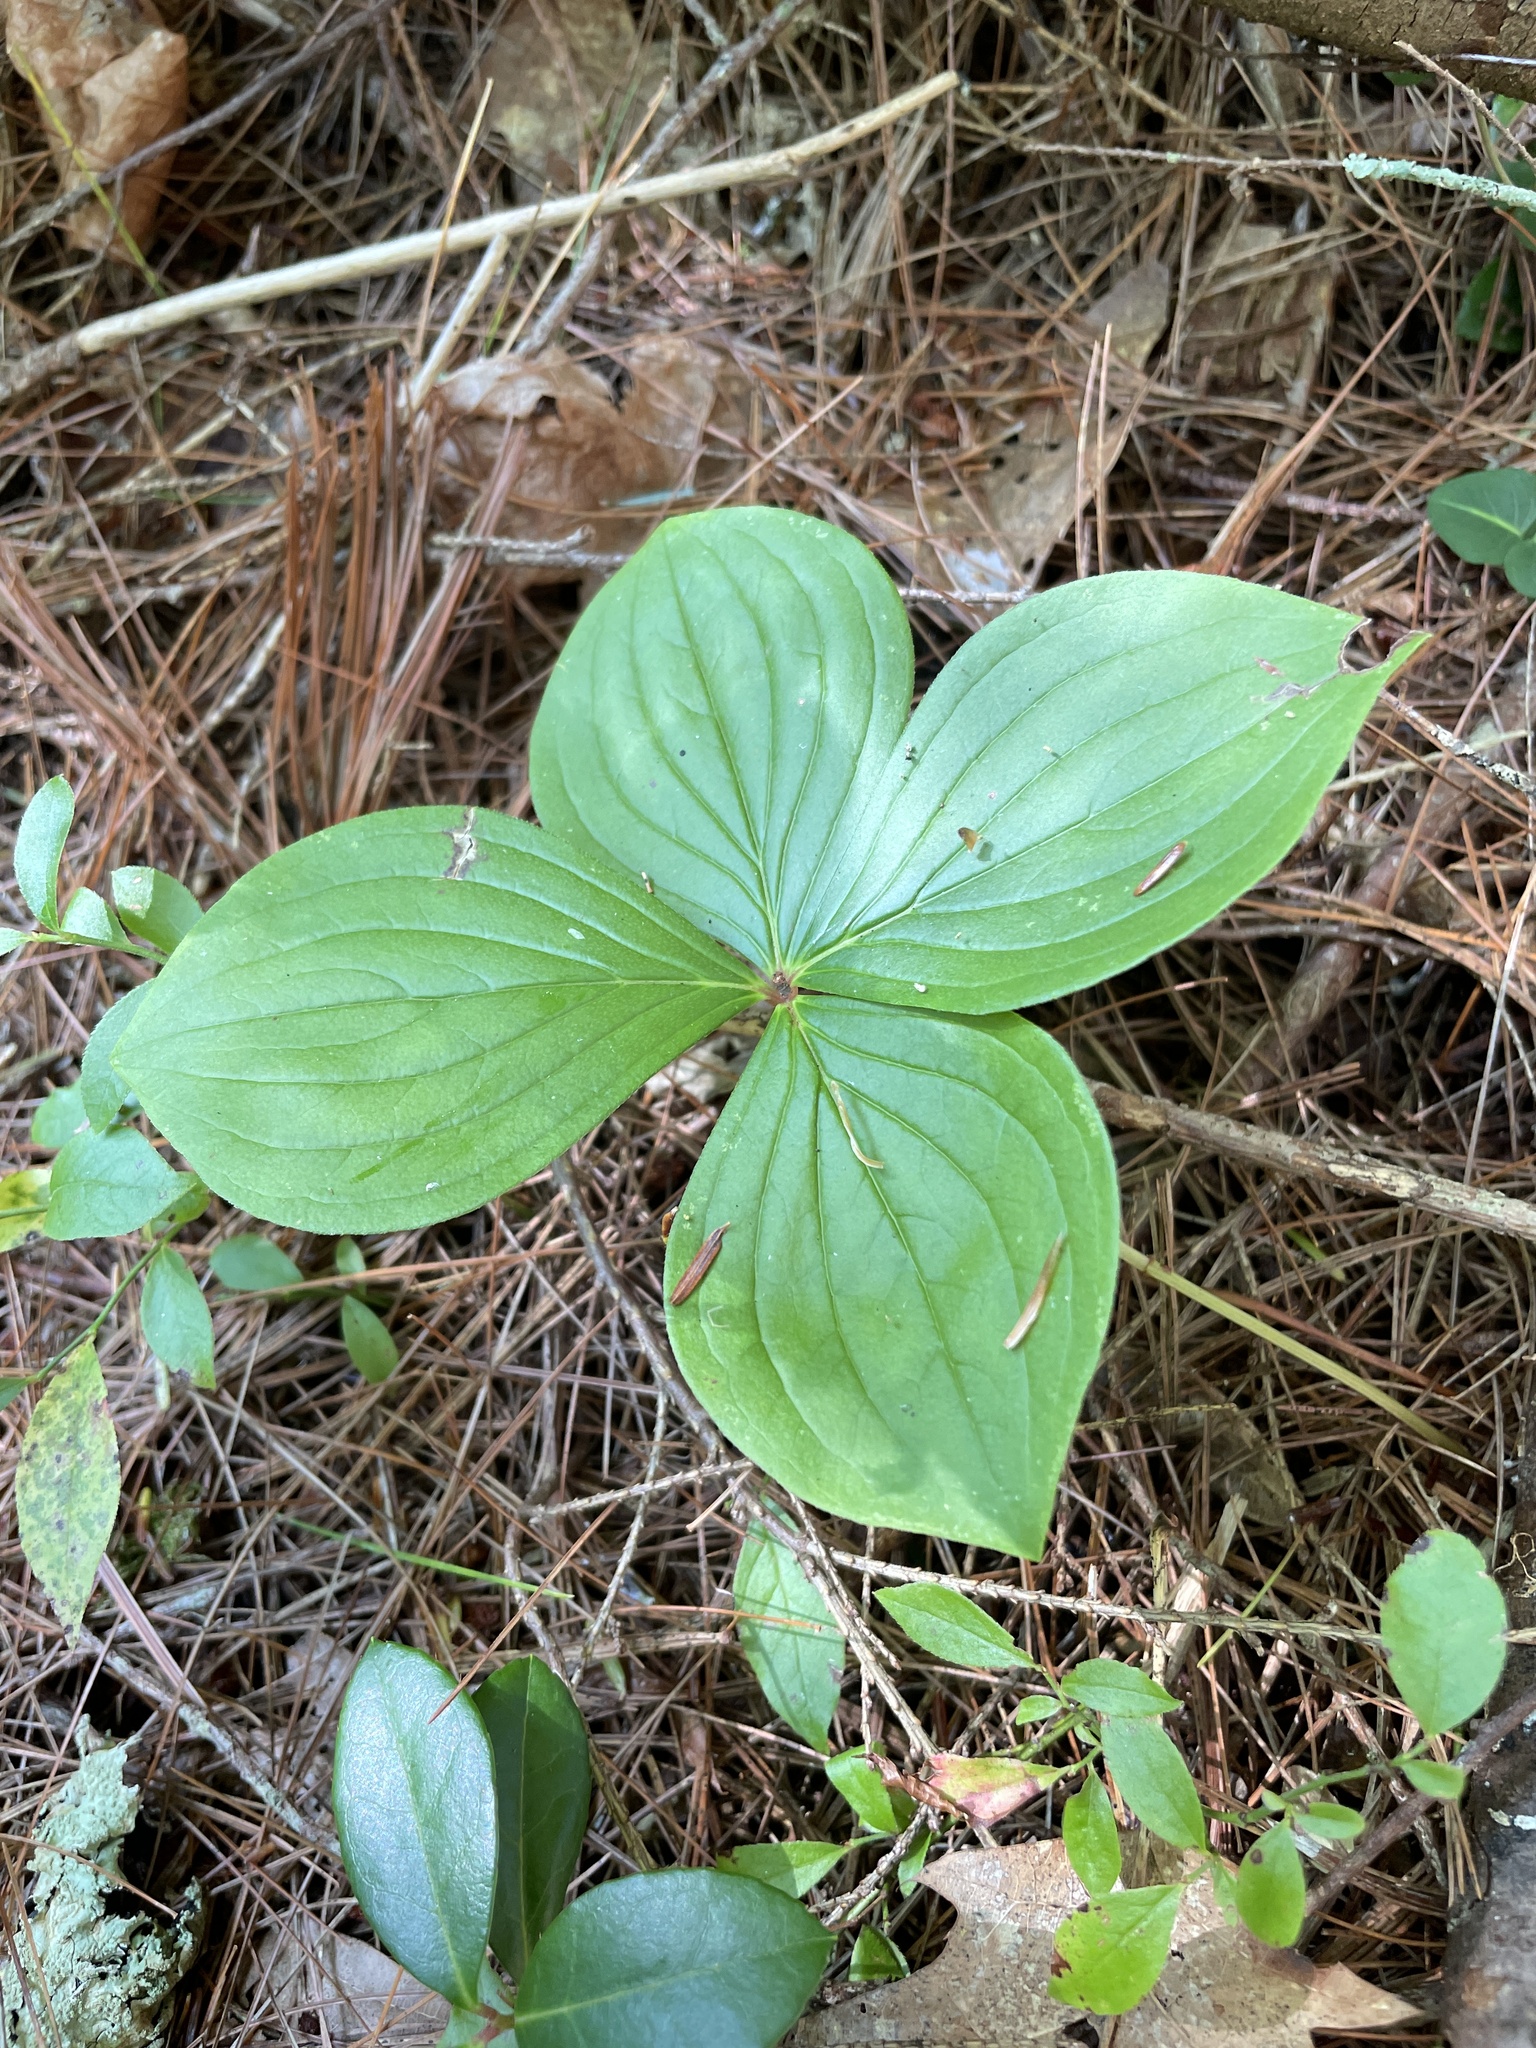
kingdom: Plantae
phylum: Tracheophyta
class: Magnoliopsida
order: Cornales
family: Cornaceae
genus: Cornus
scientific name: Cornus canadensis
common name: Creeping dogwood
